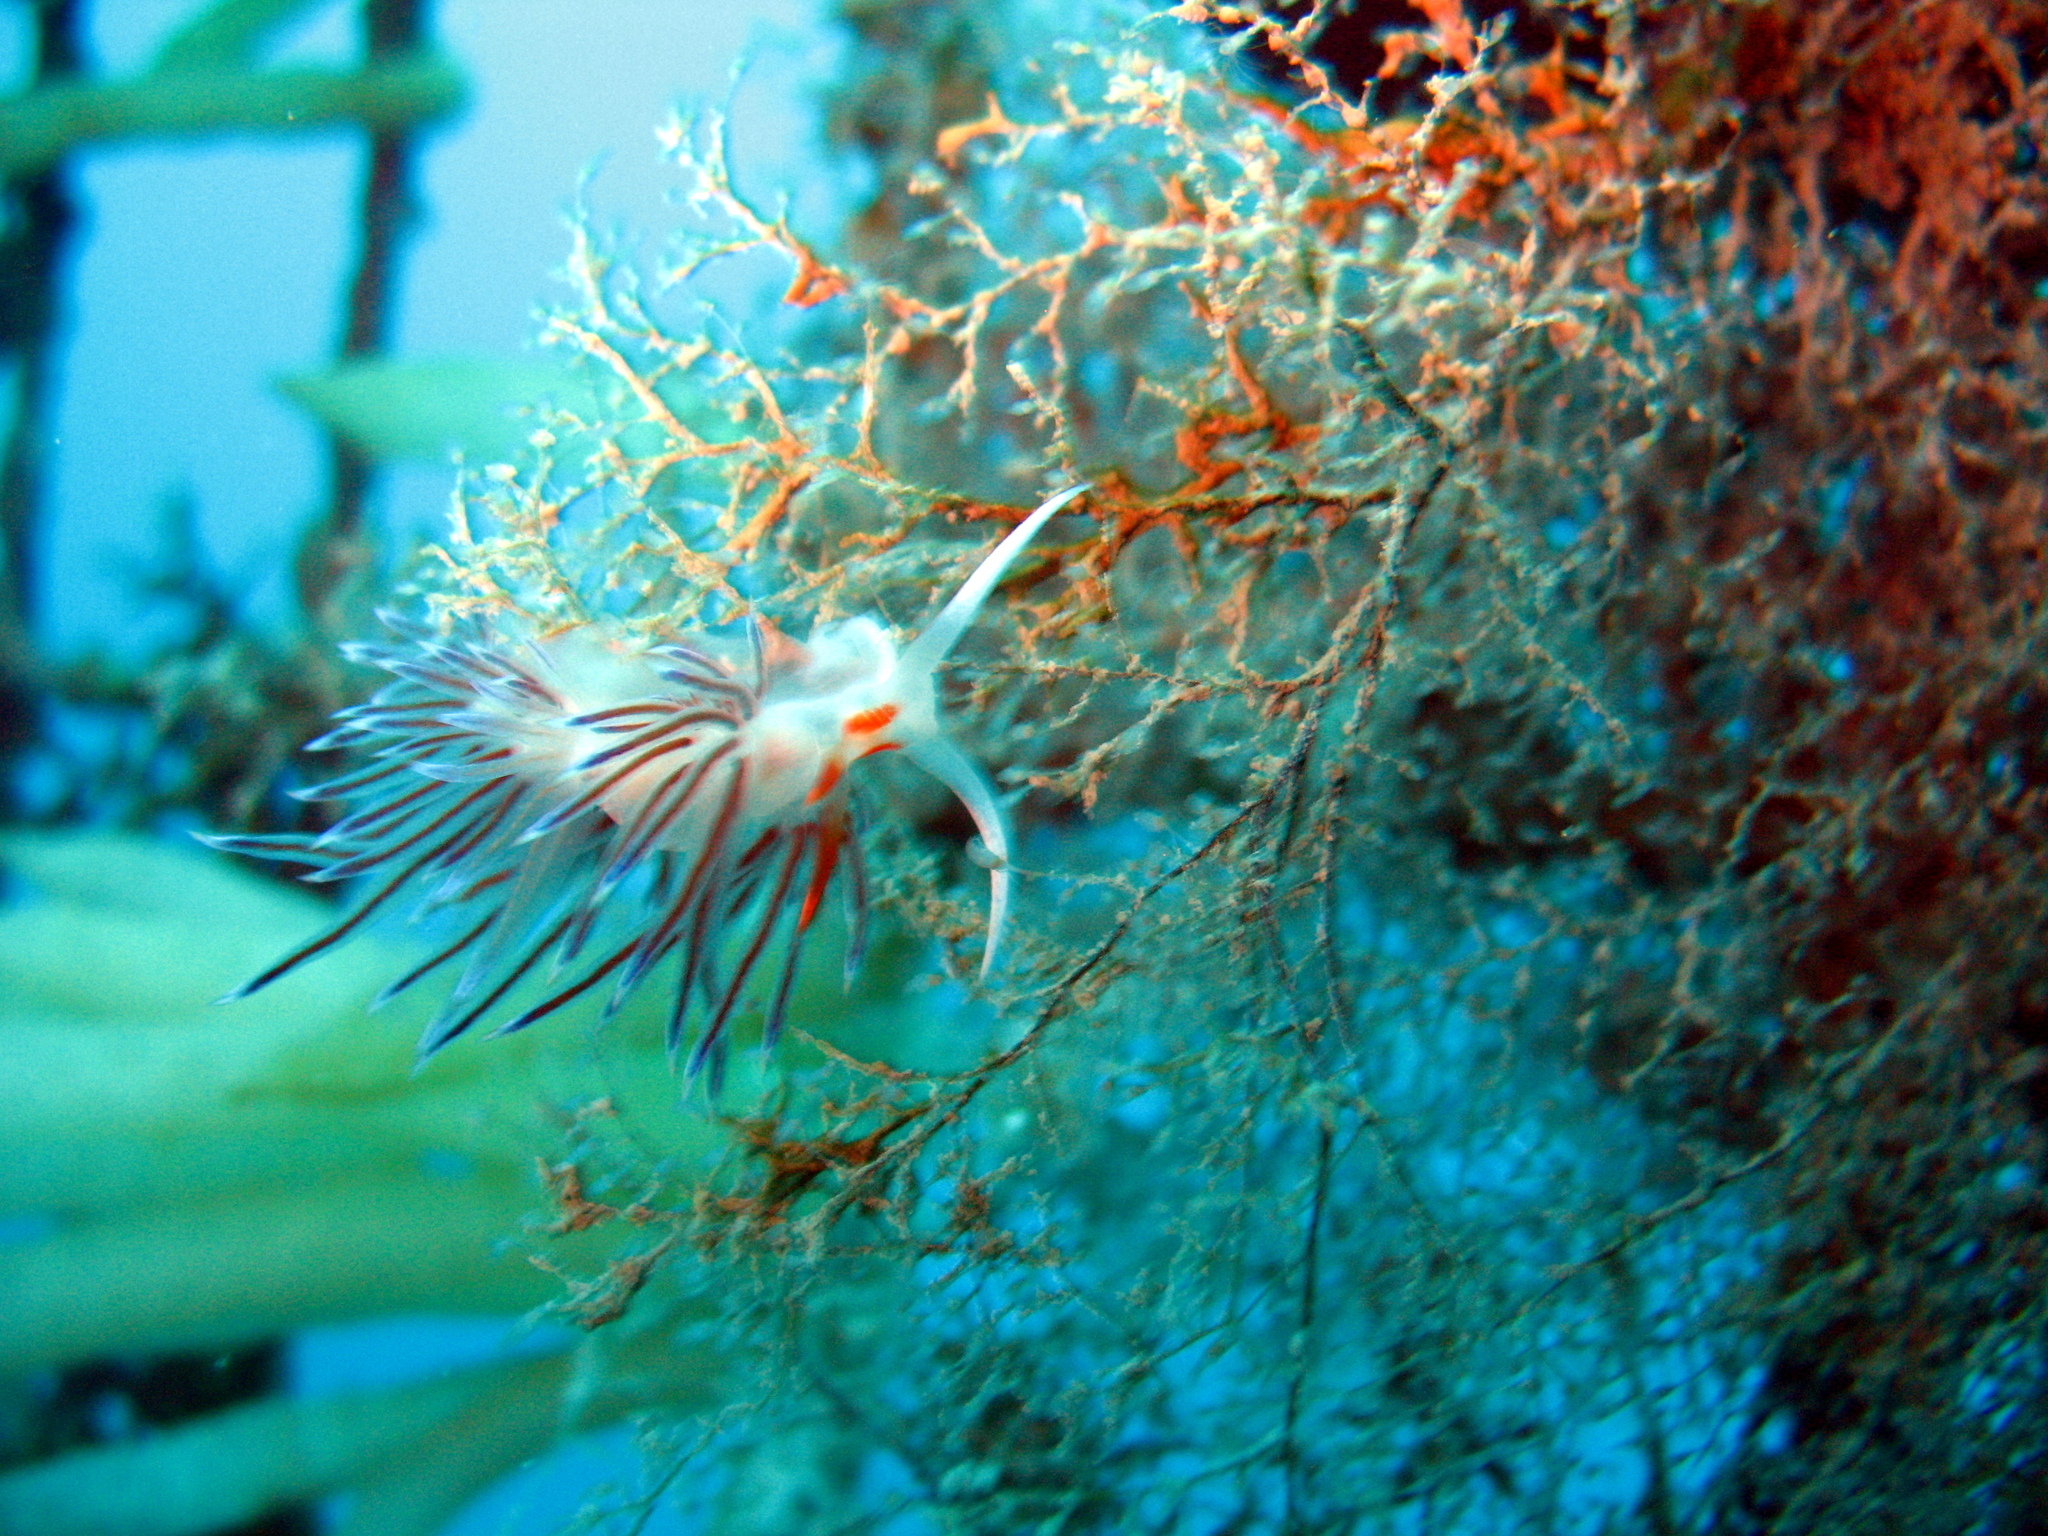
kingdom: Animalia
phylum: Mollusca
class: Gastropoda
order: Nudibranchia
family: Facelinidae
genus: Cratena
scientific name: Cratena peregrina
